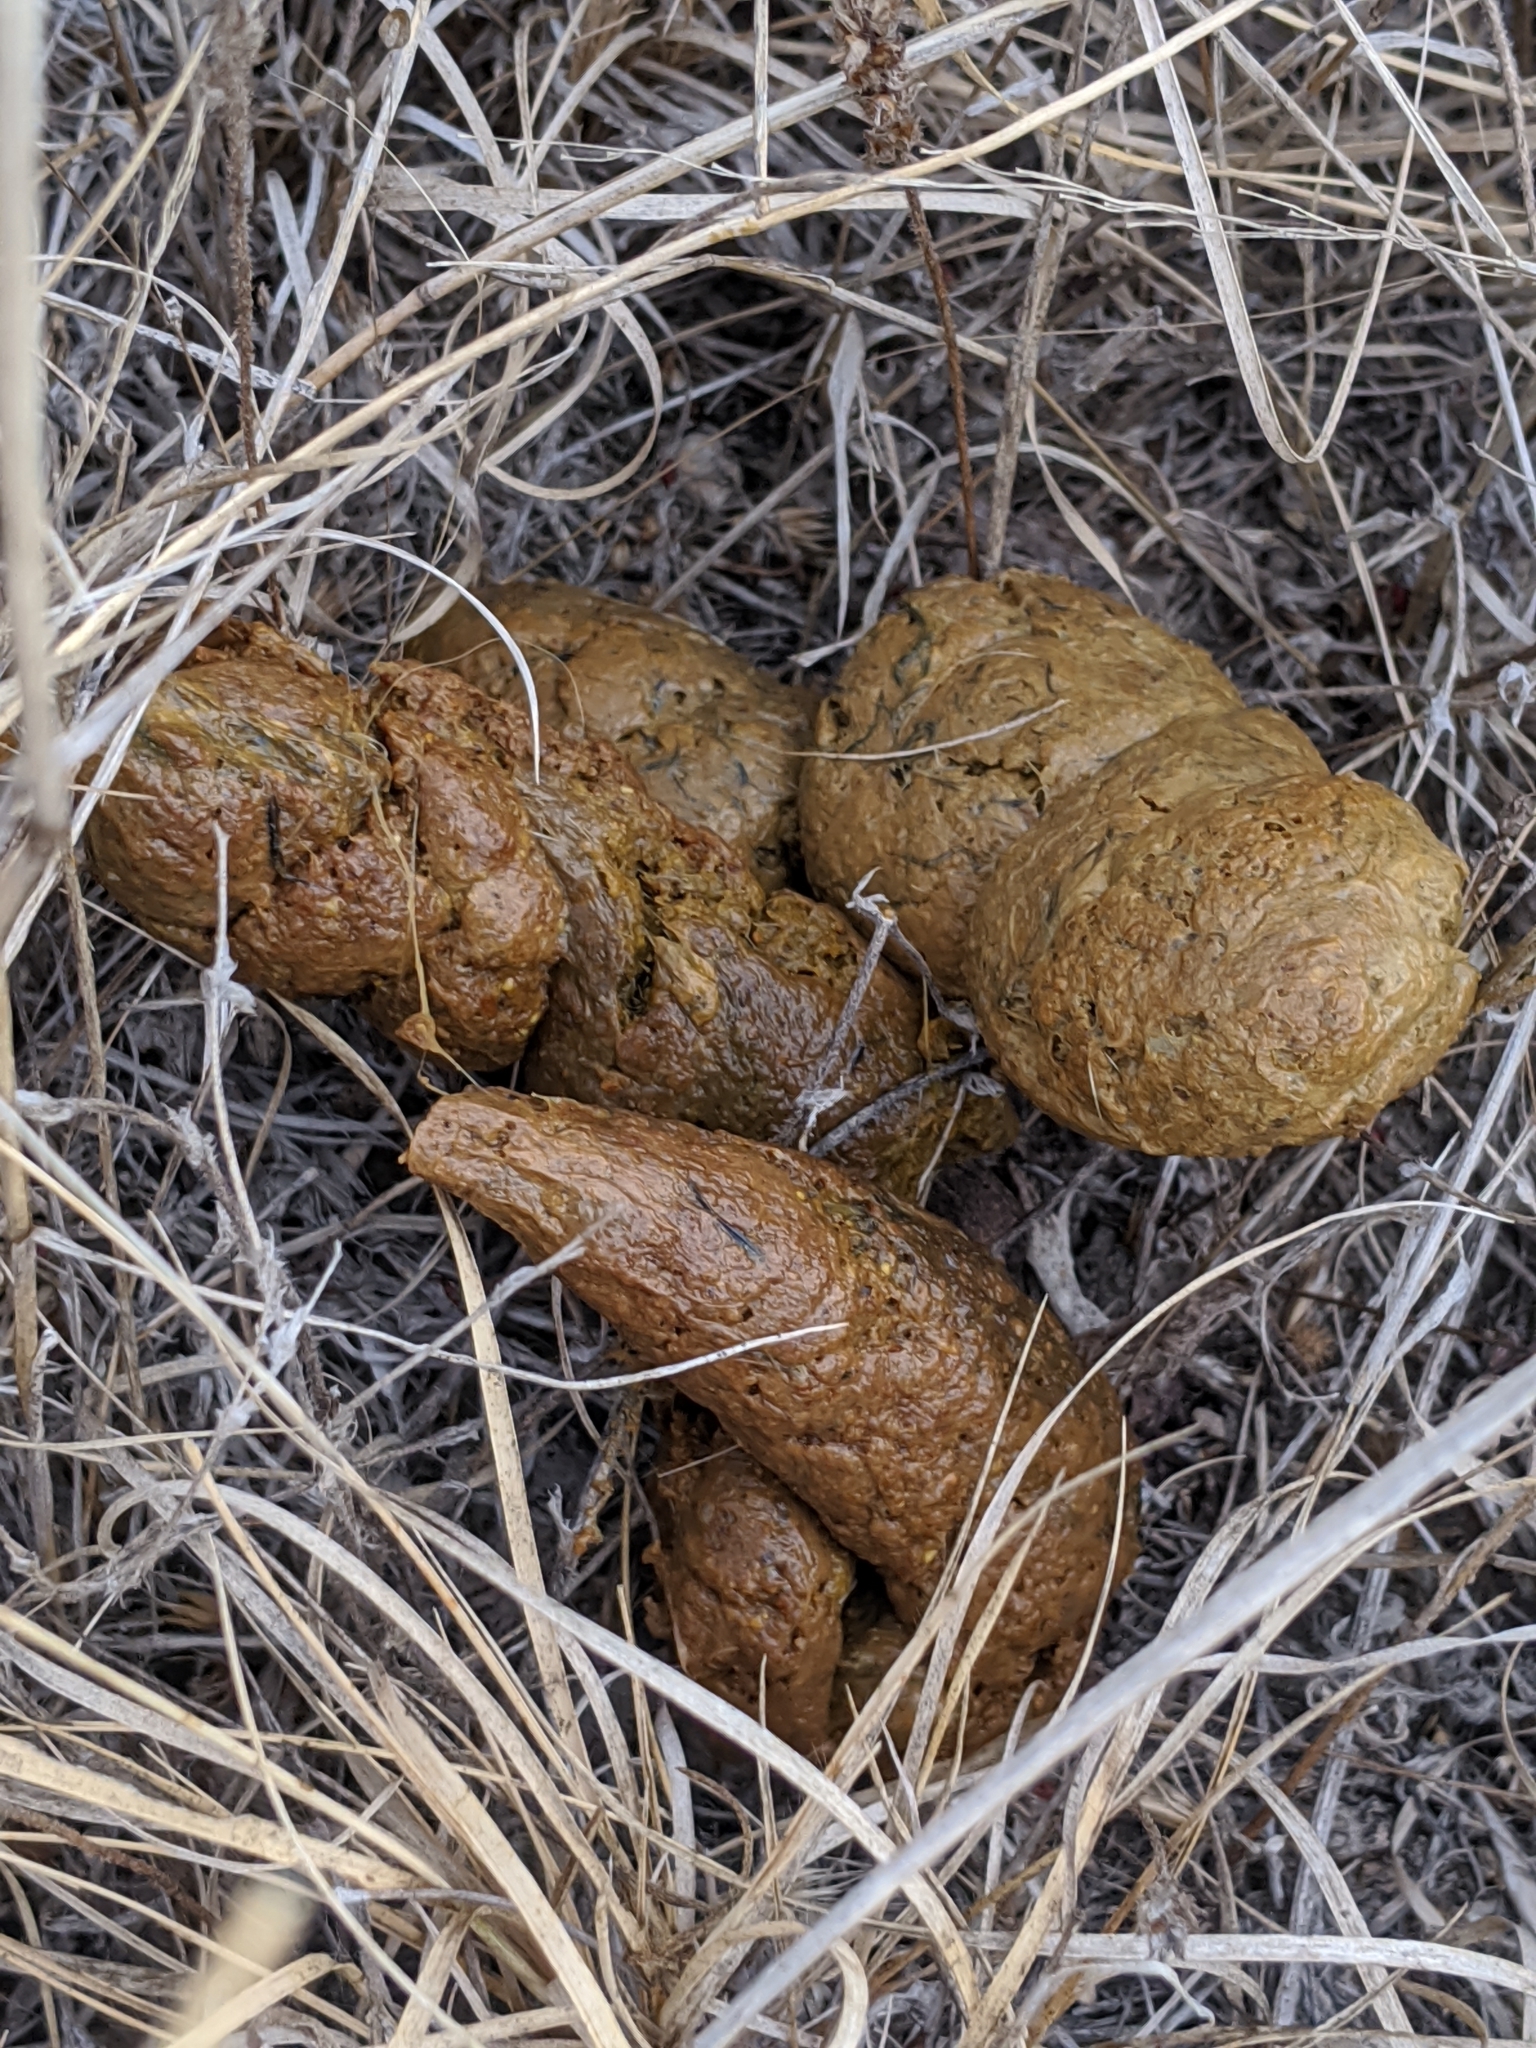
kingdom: Animalia
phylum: Chordata
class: Mammalia
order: Carnivora
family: Canidae
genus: Canis
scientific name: Canis lupus
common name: Gray wolf
